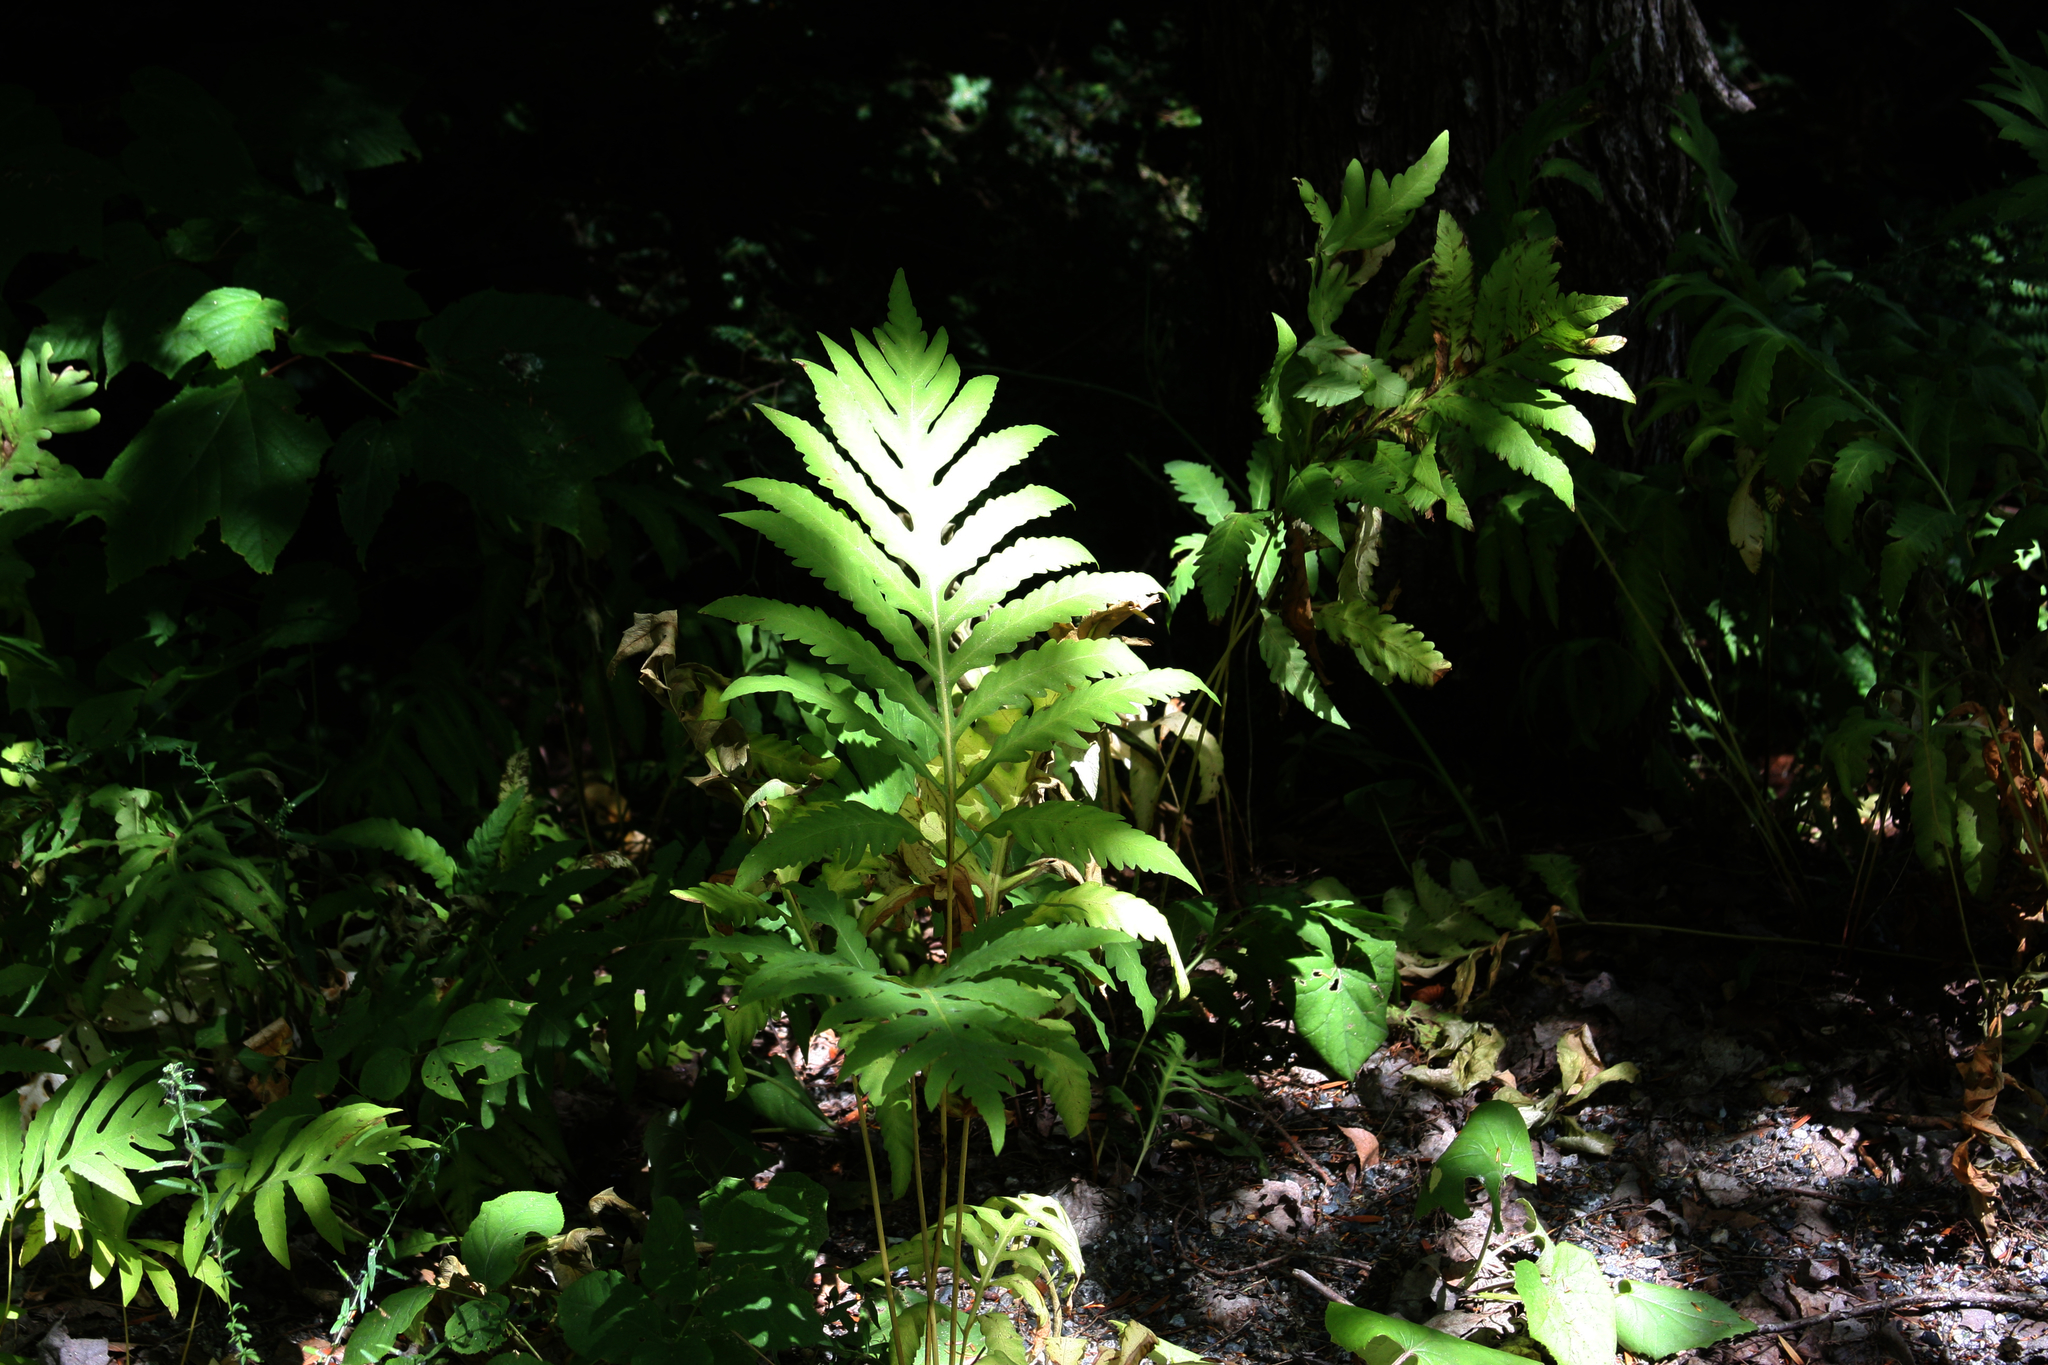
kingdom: Plantae
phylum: Tracheophyta
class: Polypodiopsida
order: Polypodiales
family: Onocleaceae
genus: Onoclea
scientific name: Onoclea sensibilis
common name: Sensitive fern
